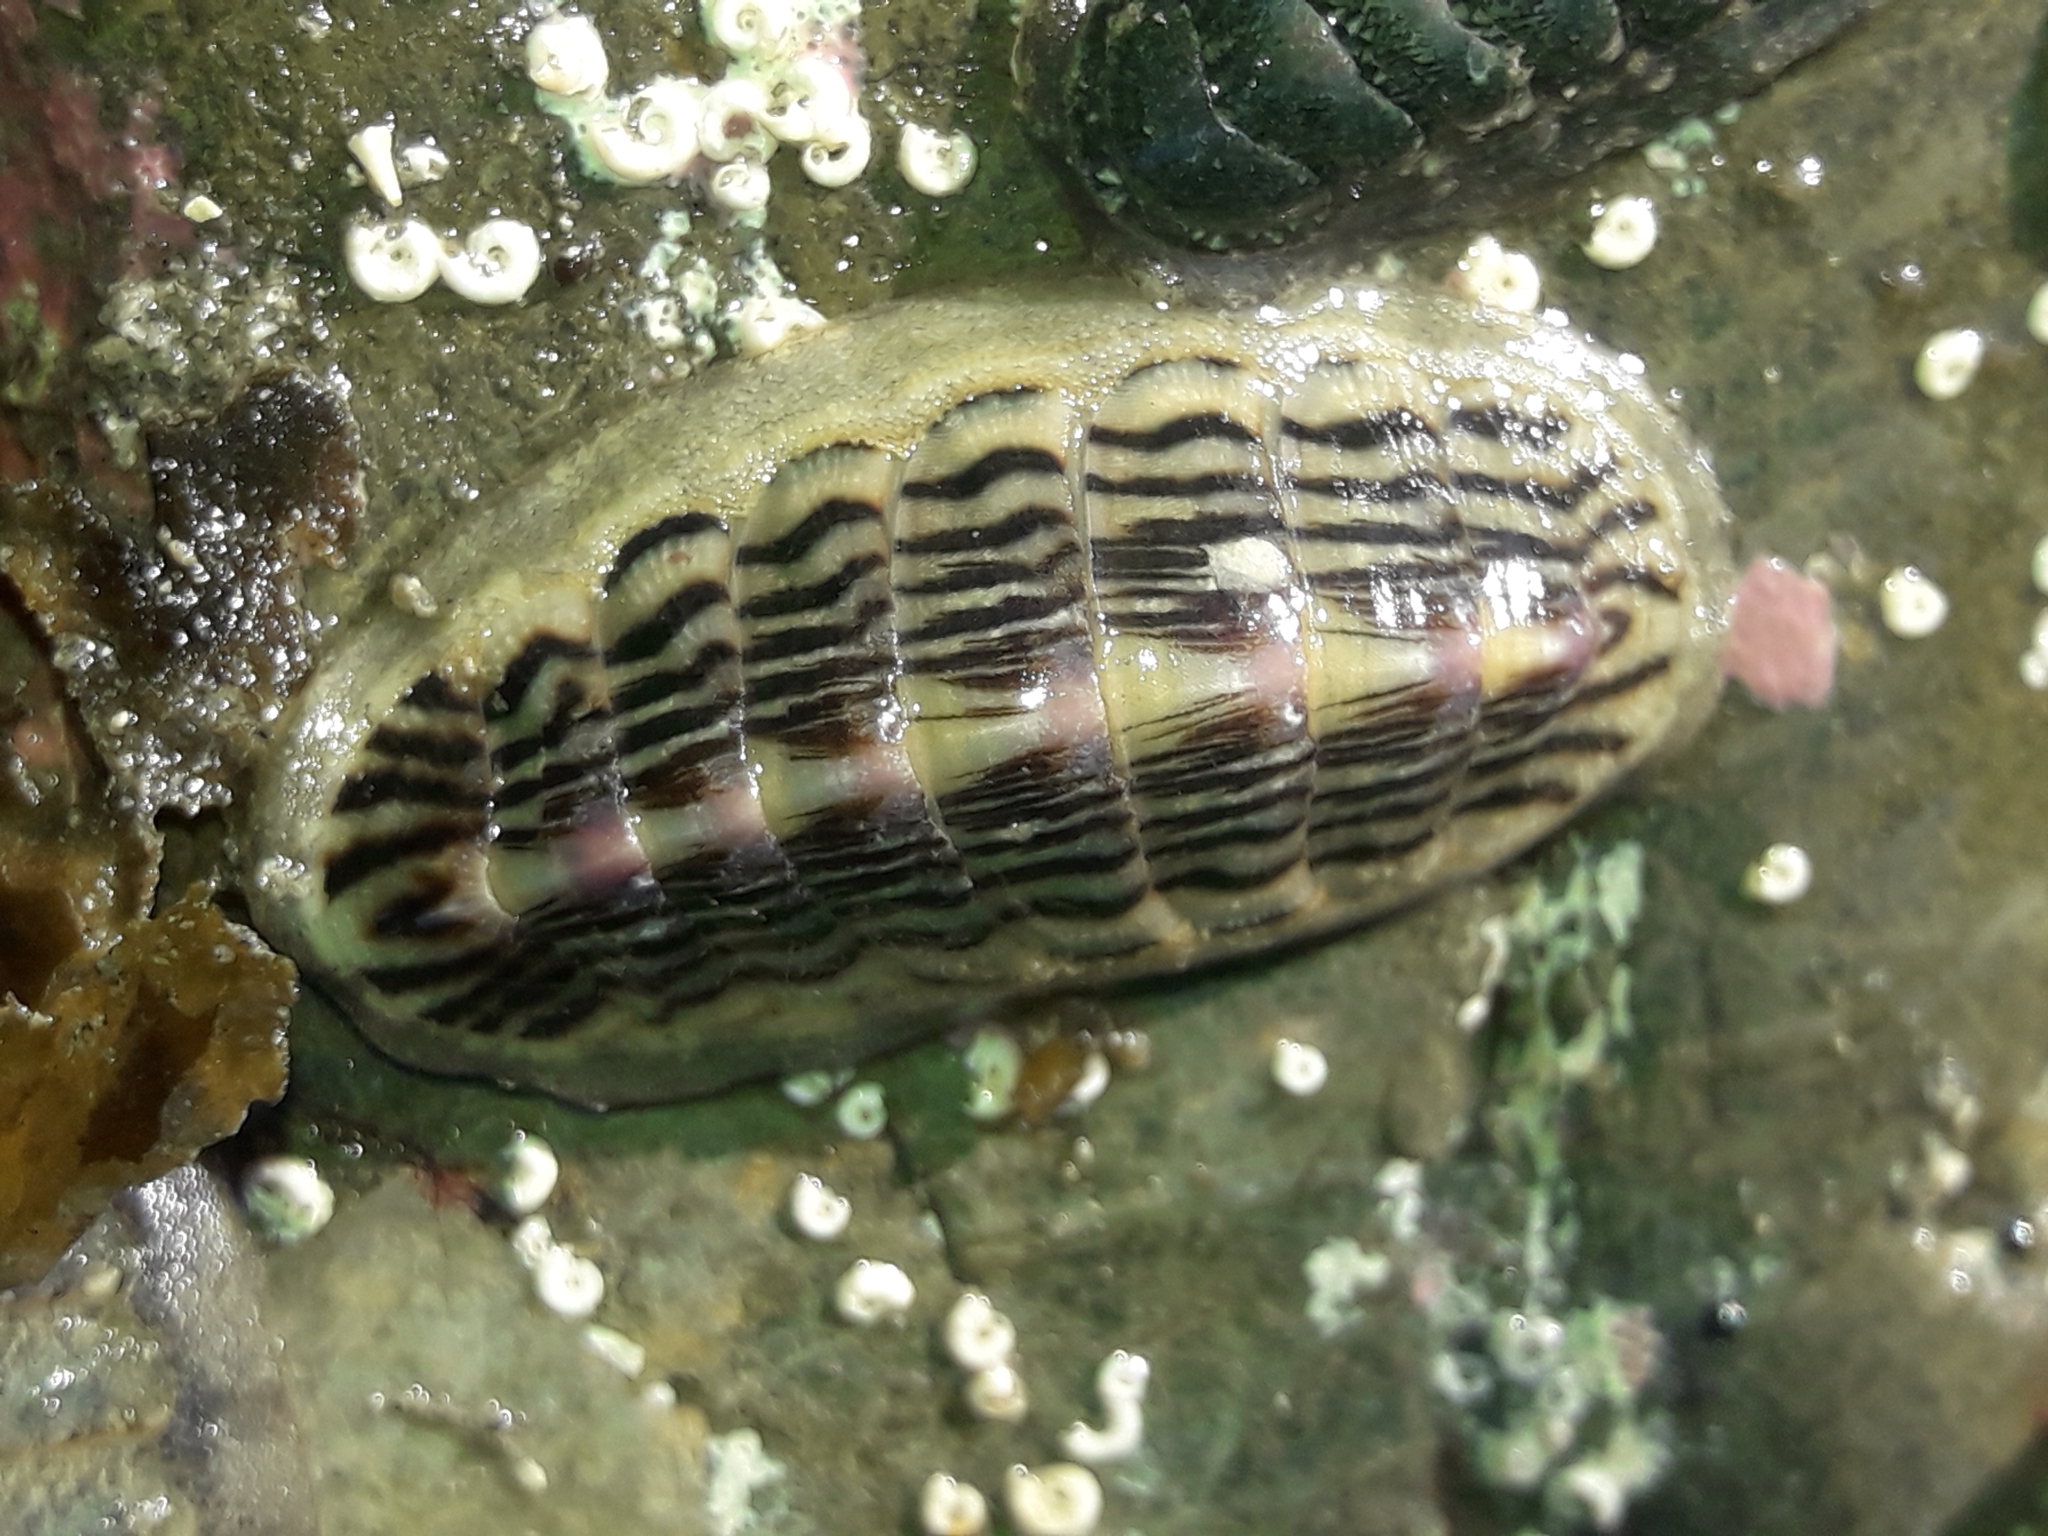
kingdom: Animalia
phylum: Mollusca
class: Polyplacophora
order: Chitonida
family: Ischnochitonidae
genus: Ischnochiton
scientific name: Ischnochiton maorianus
